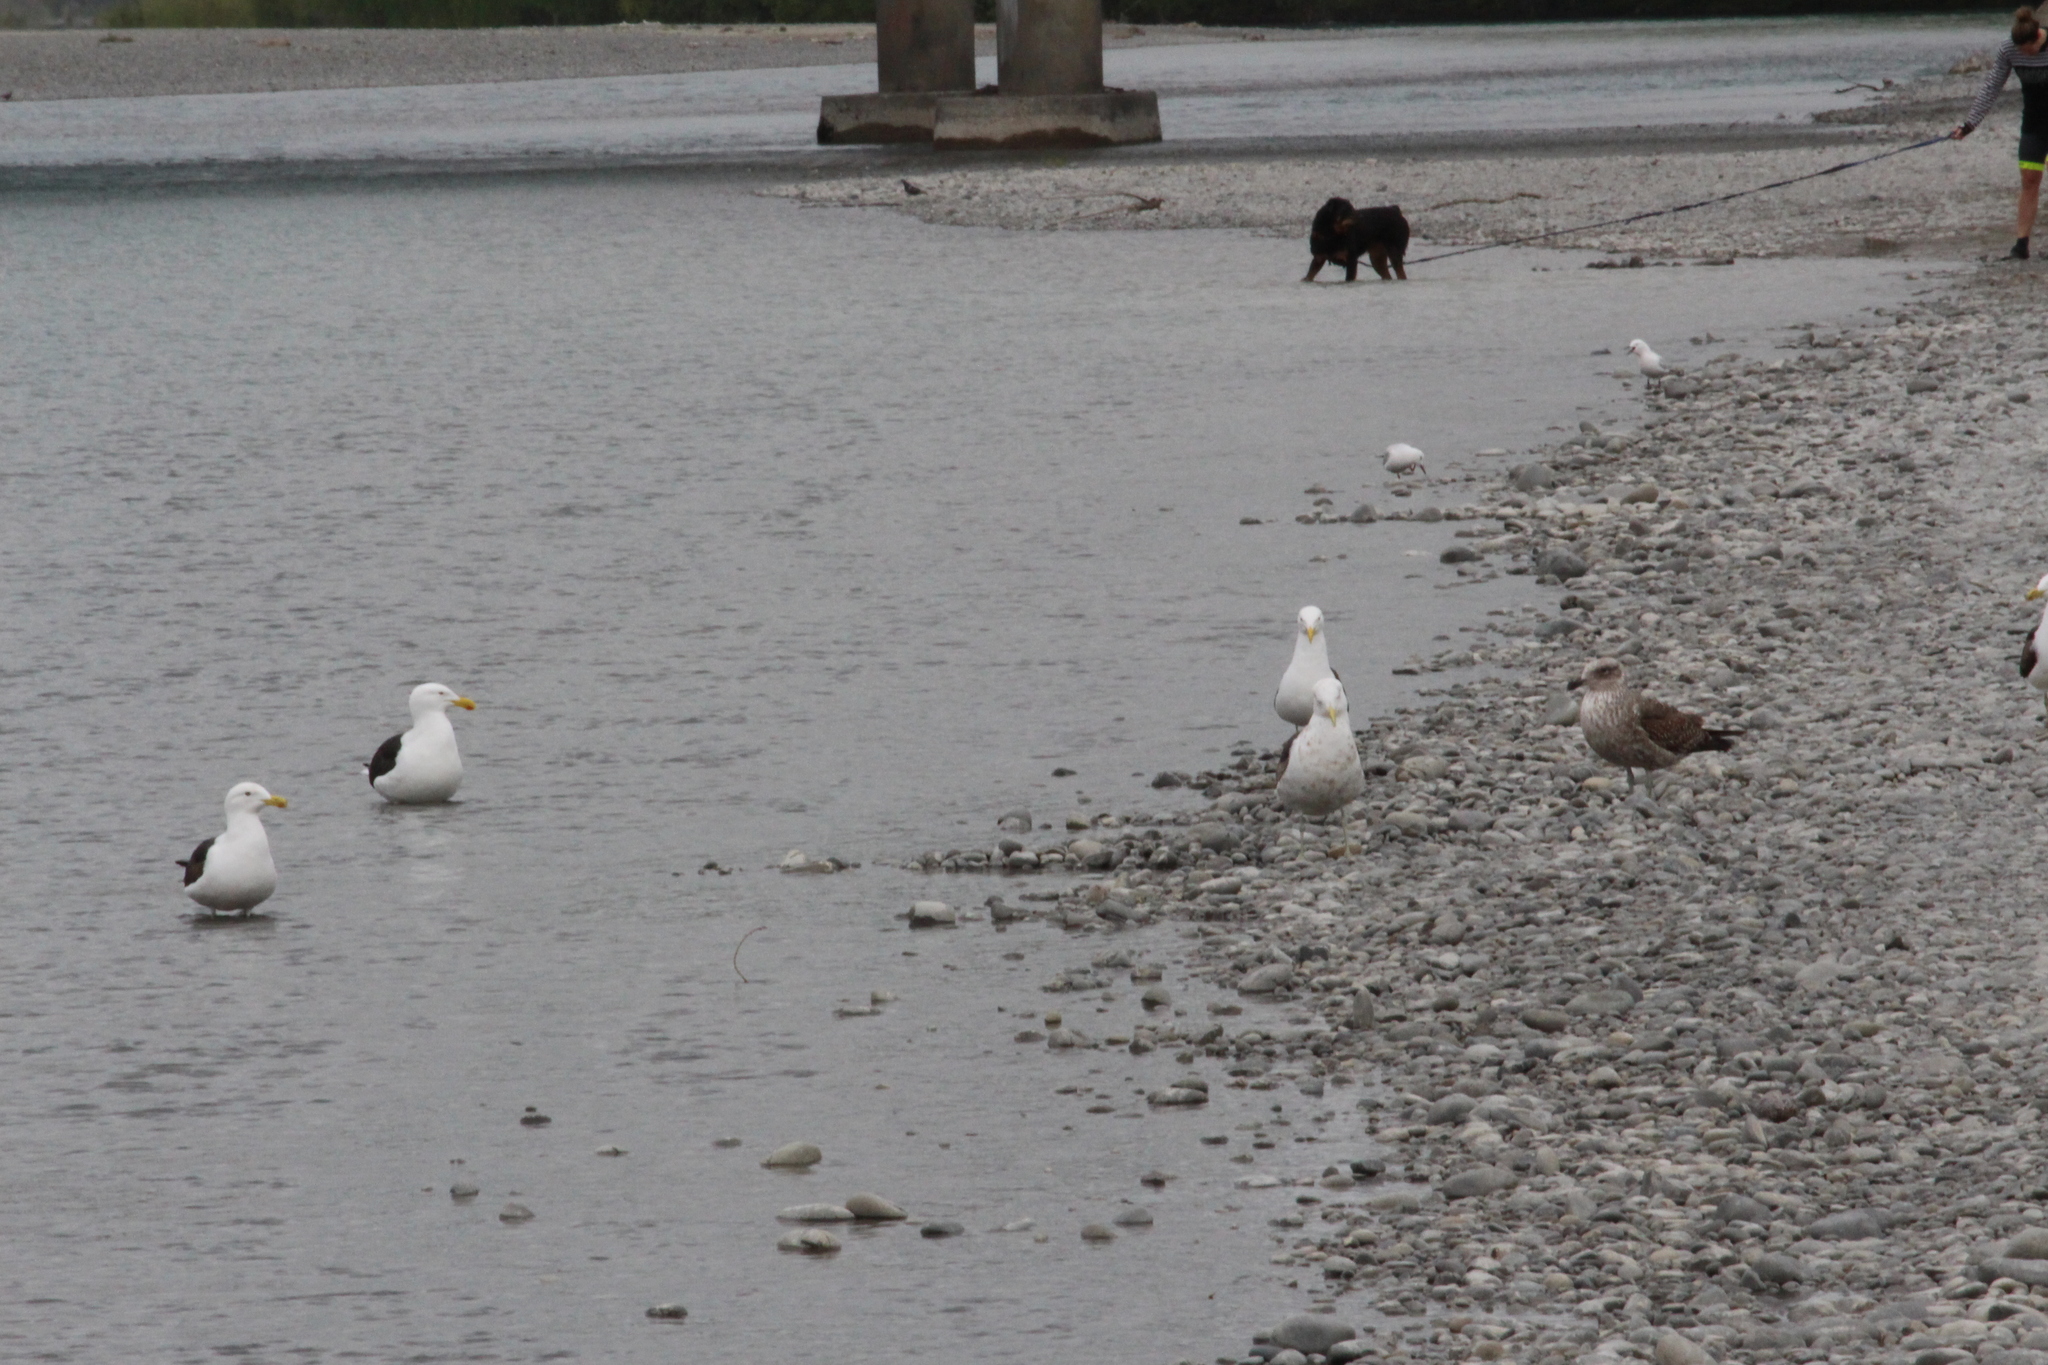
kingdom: Animalia
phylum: Chordata
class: Aves
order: Charadriiformes
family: Laridae
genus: Larus
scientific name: Larus dominicanus
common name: Kelp gull
